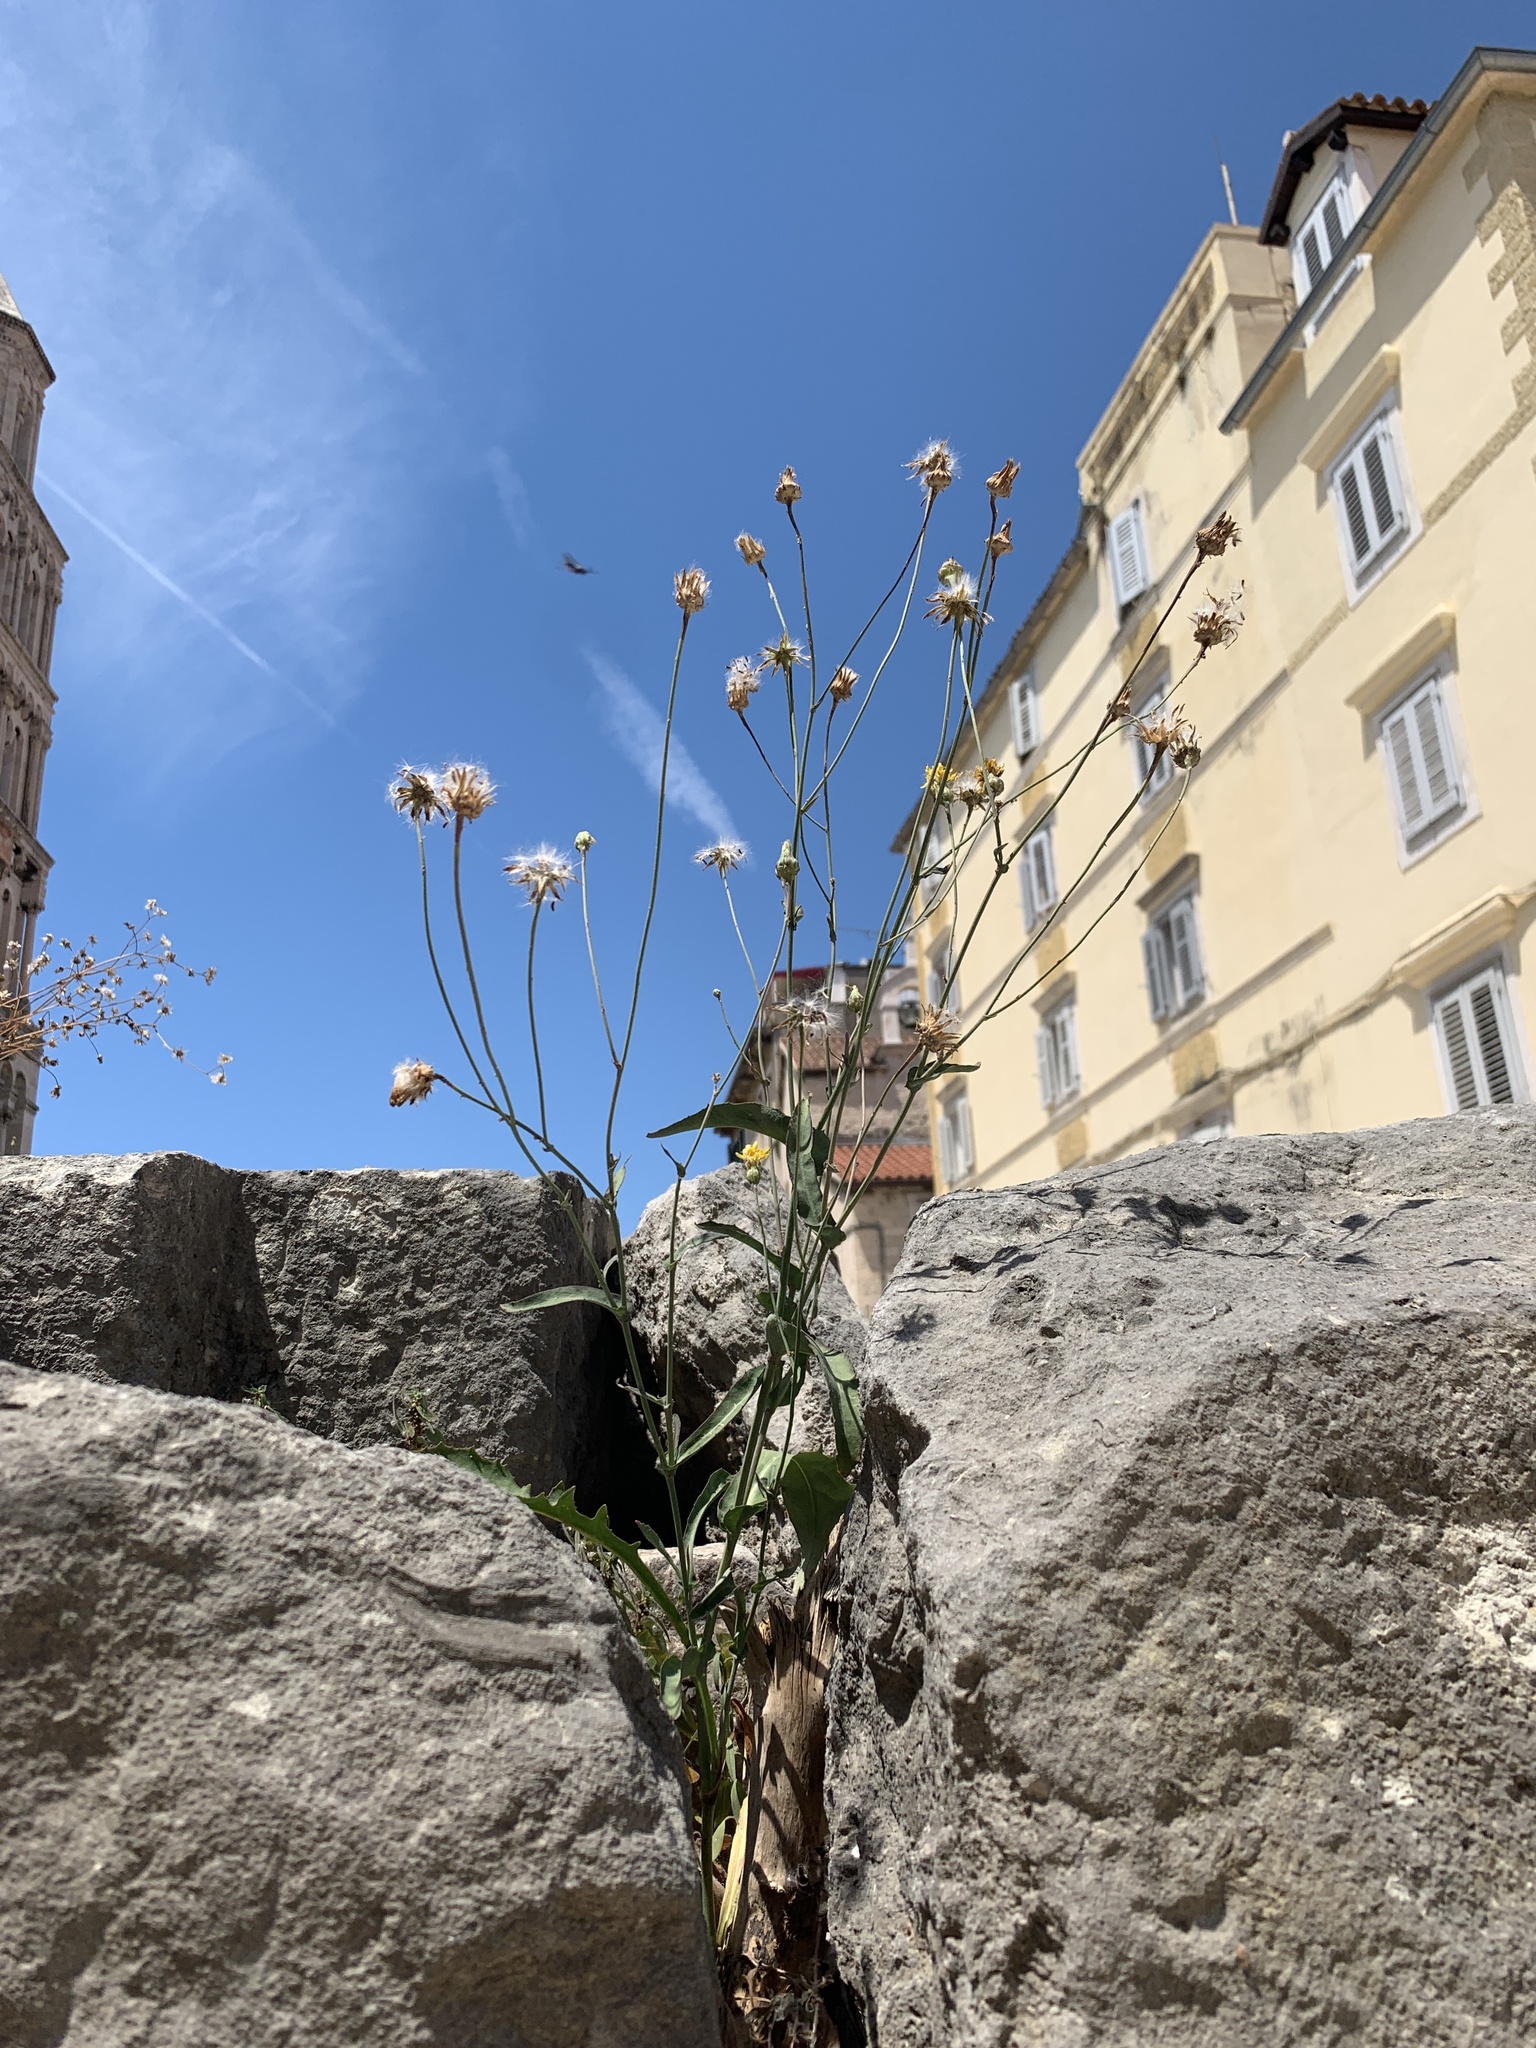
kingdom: Plantae
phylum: Tracheophyta
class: Magnoliopsida
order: Asterales
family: Asteraceae
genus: Reichardia
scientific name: Reichardia picroides
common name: Common brighteyes
